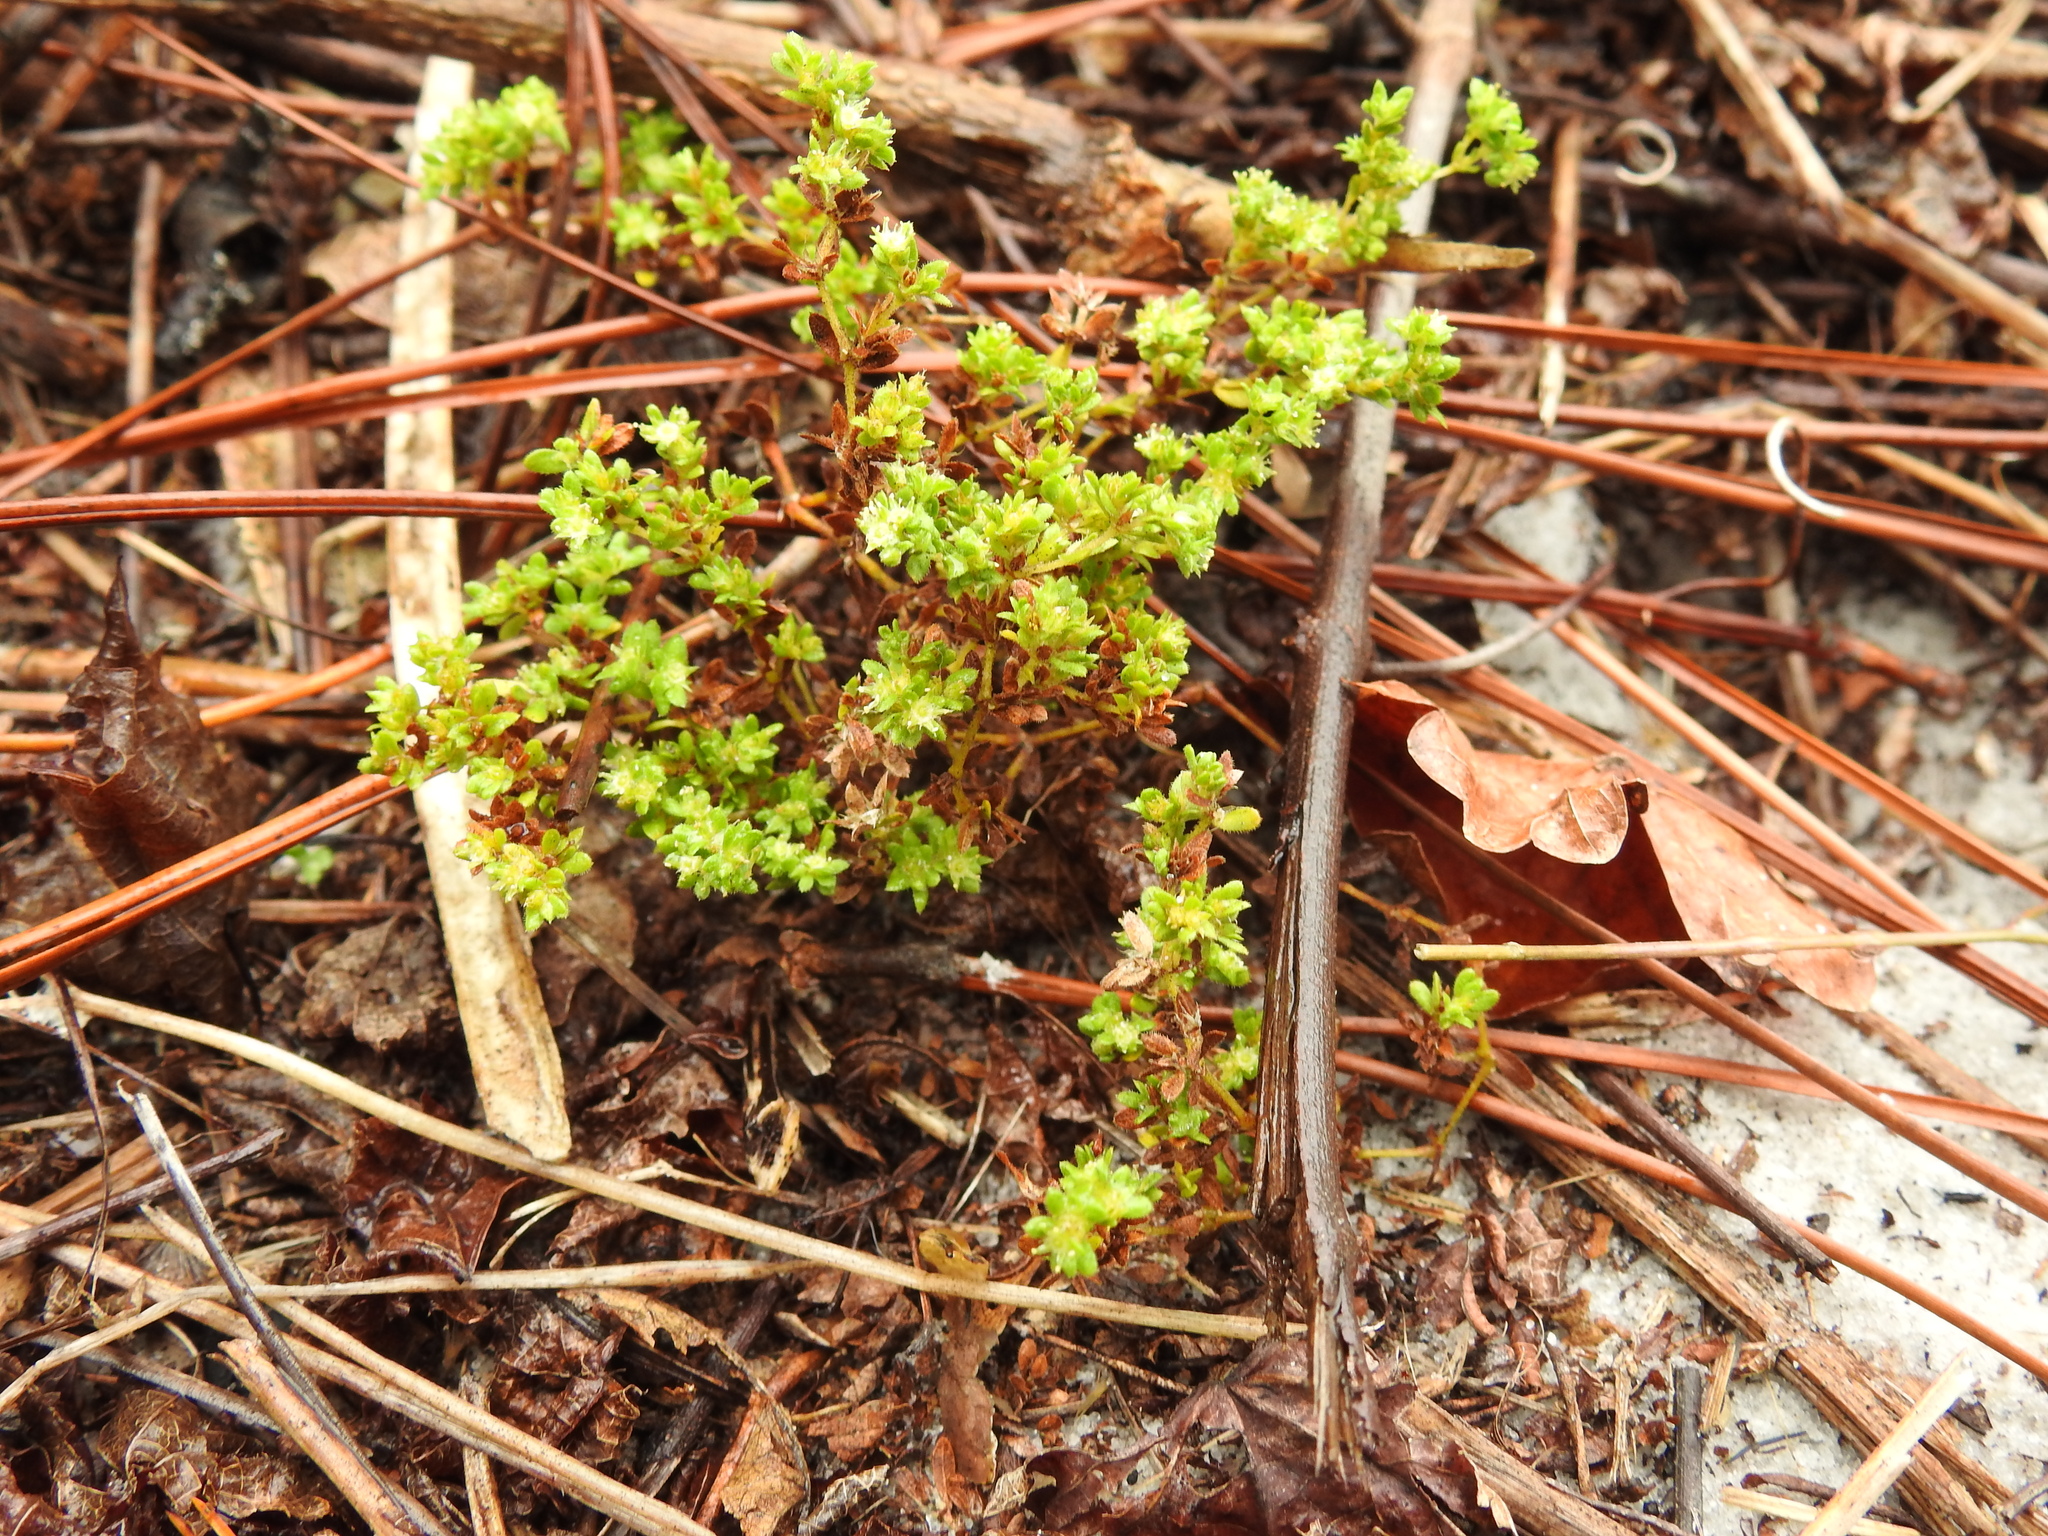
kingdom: Plantae
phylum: Tracheophyta
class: Magnoliopsida
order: Caryophyllales
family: Caryophyllaceae
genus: Paronychia
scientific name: Paronychia herniarioides
